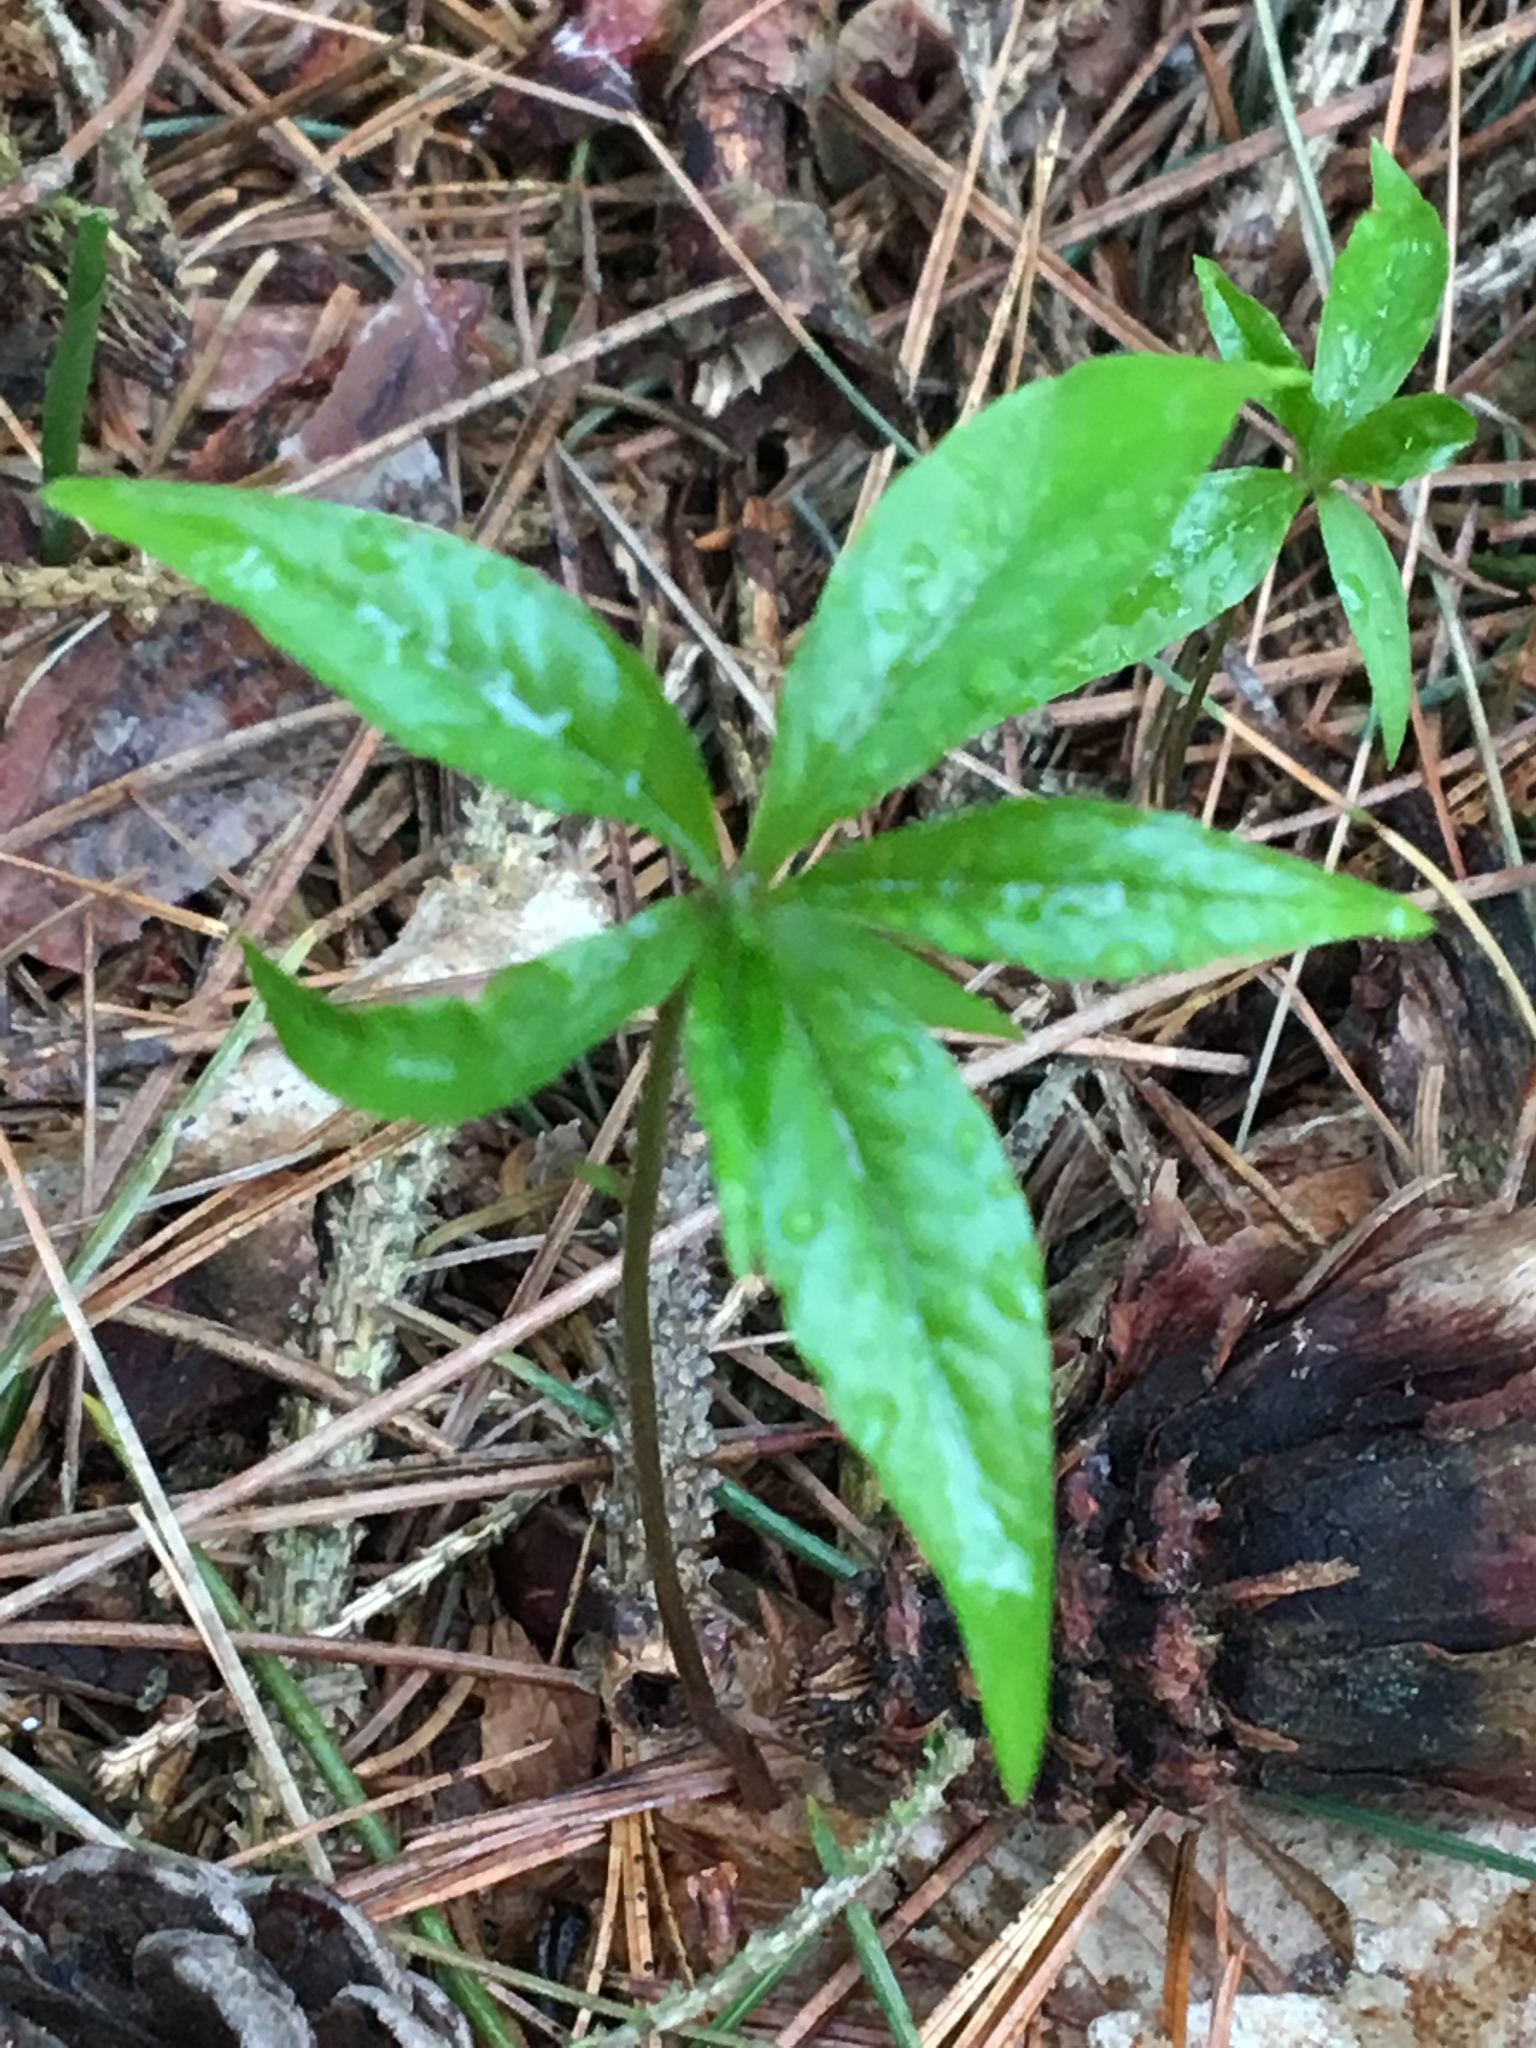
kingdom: Plantae
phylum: Tracheophyta
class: Magnoliopsida
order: Ericales
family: Primulaceae
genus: Lysimachia
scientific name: Lysimachia borealis
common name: American starflower
